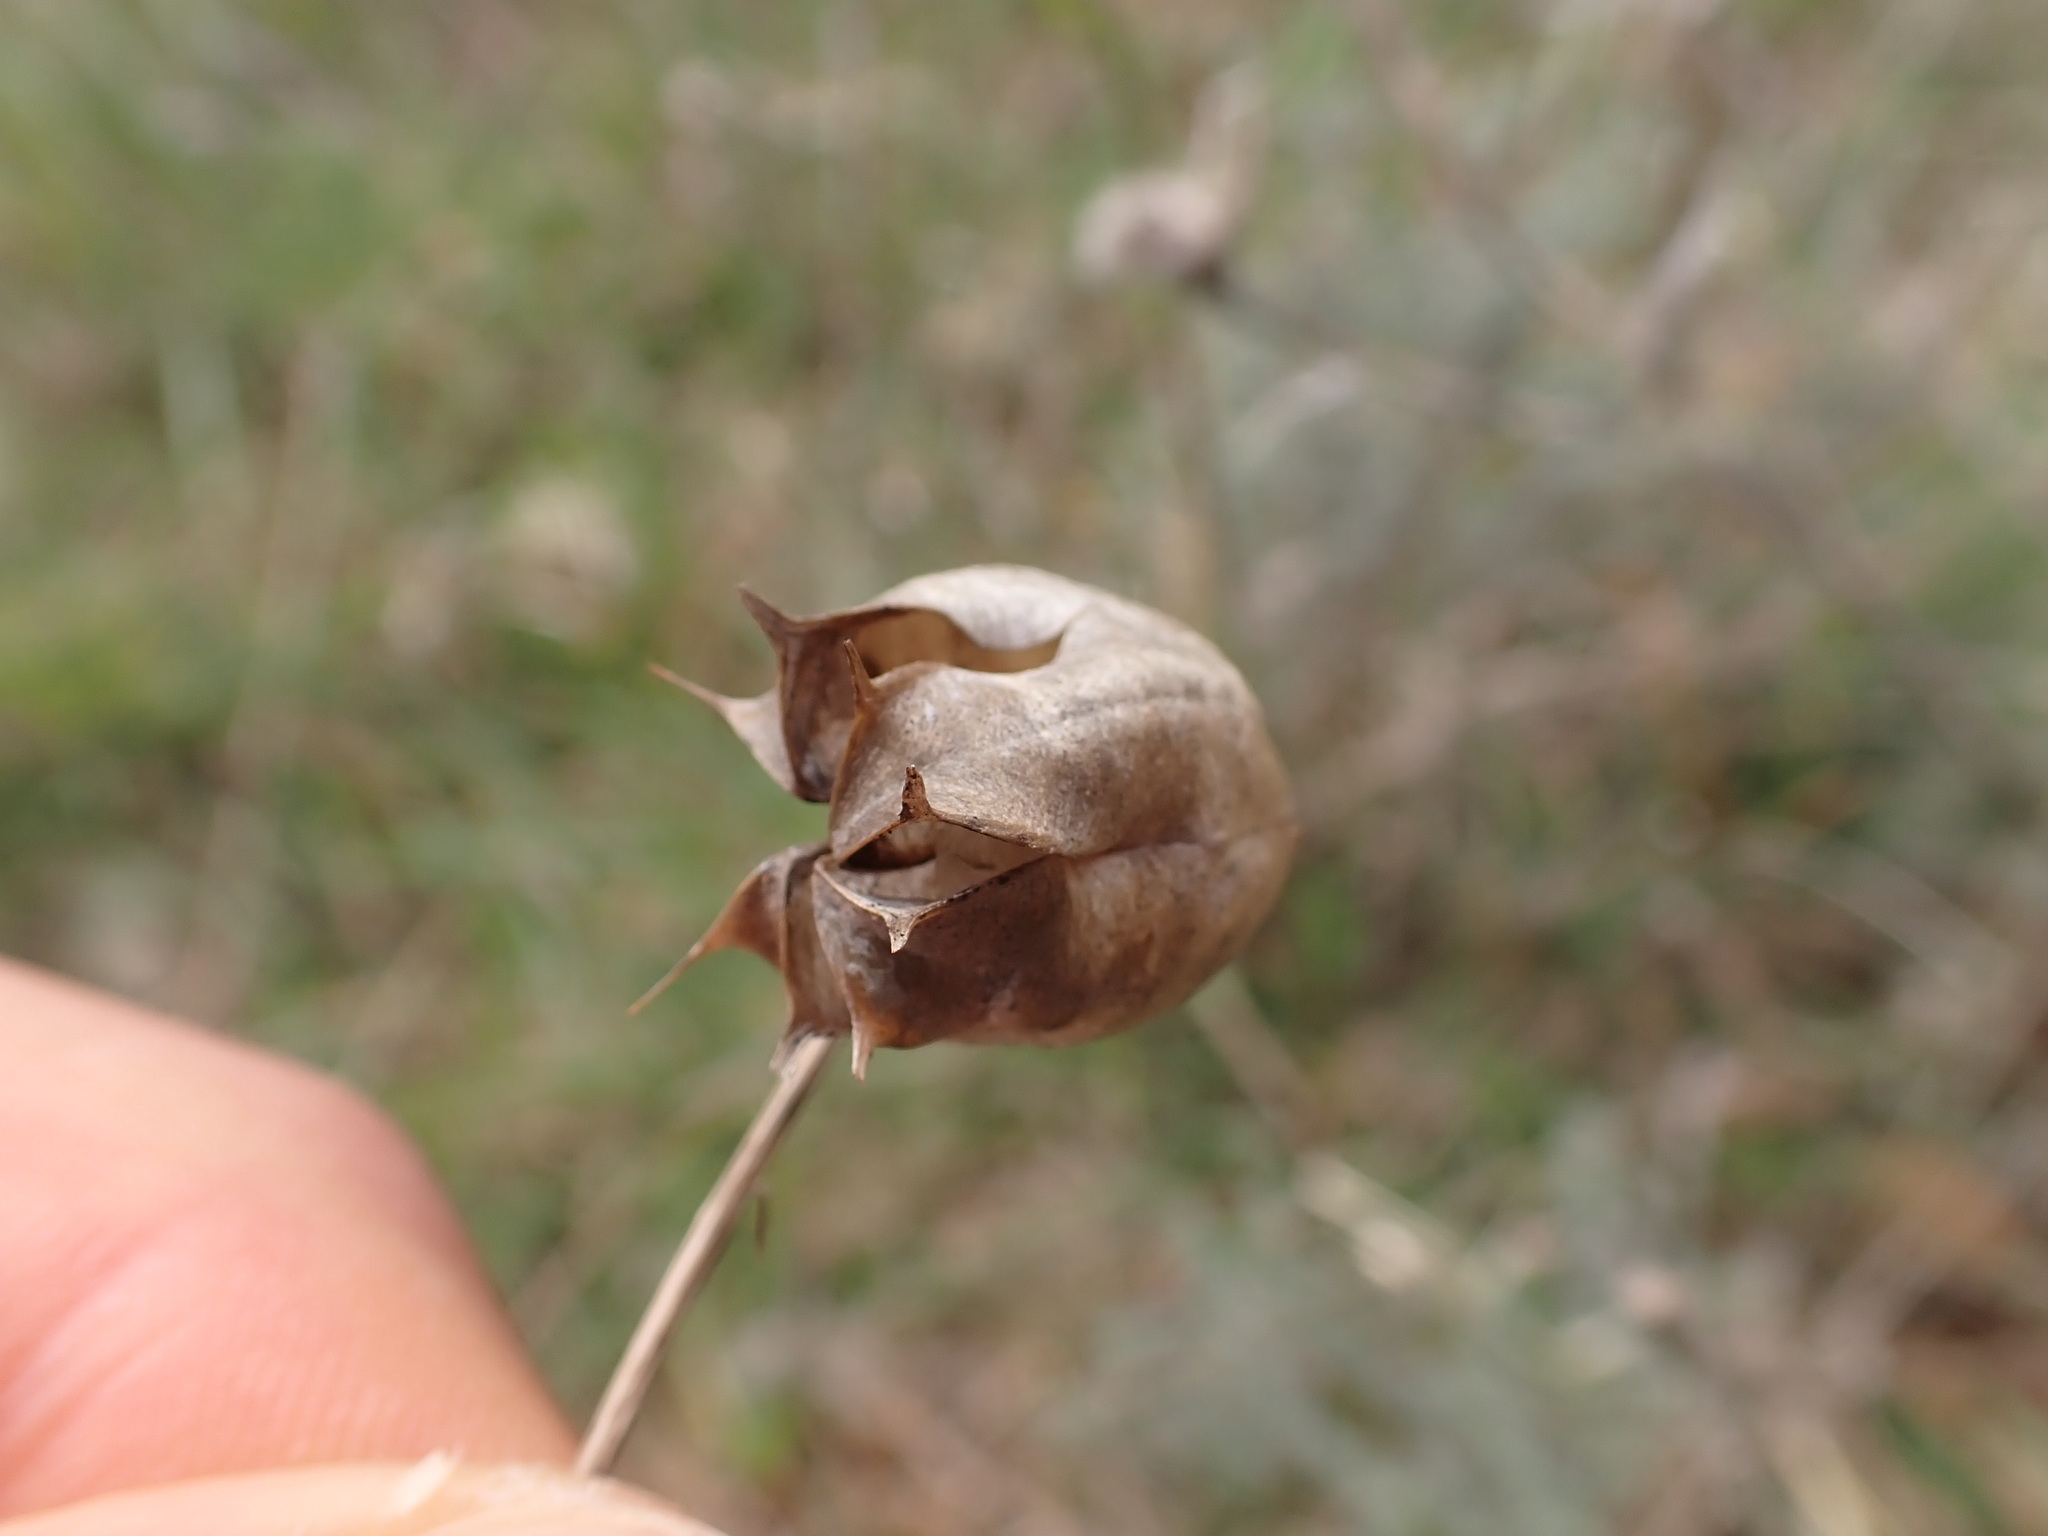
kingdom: Plantae
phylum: Tracheophyta
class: Magnoliopsida
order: Ranunculales
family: Ranunculaceae
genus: Nigella
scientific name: Nigella damascena
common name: Love-in-a-mist
